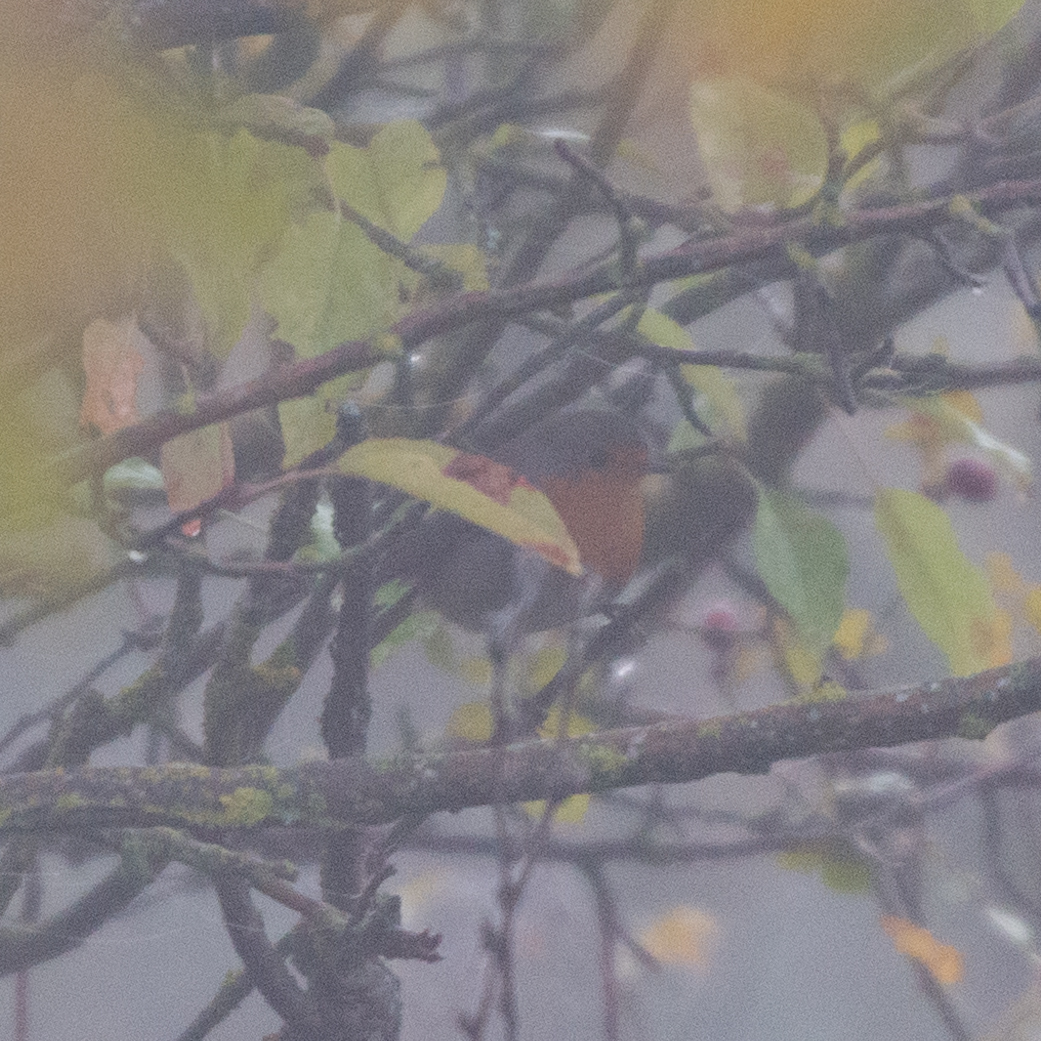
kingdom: Animalia
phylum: Chordata
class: Aves
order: Passeriformes
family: Muscicapidae
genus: Erithacus
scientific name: Erithacus rubecula
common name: European robin
